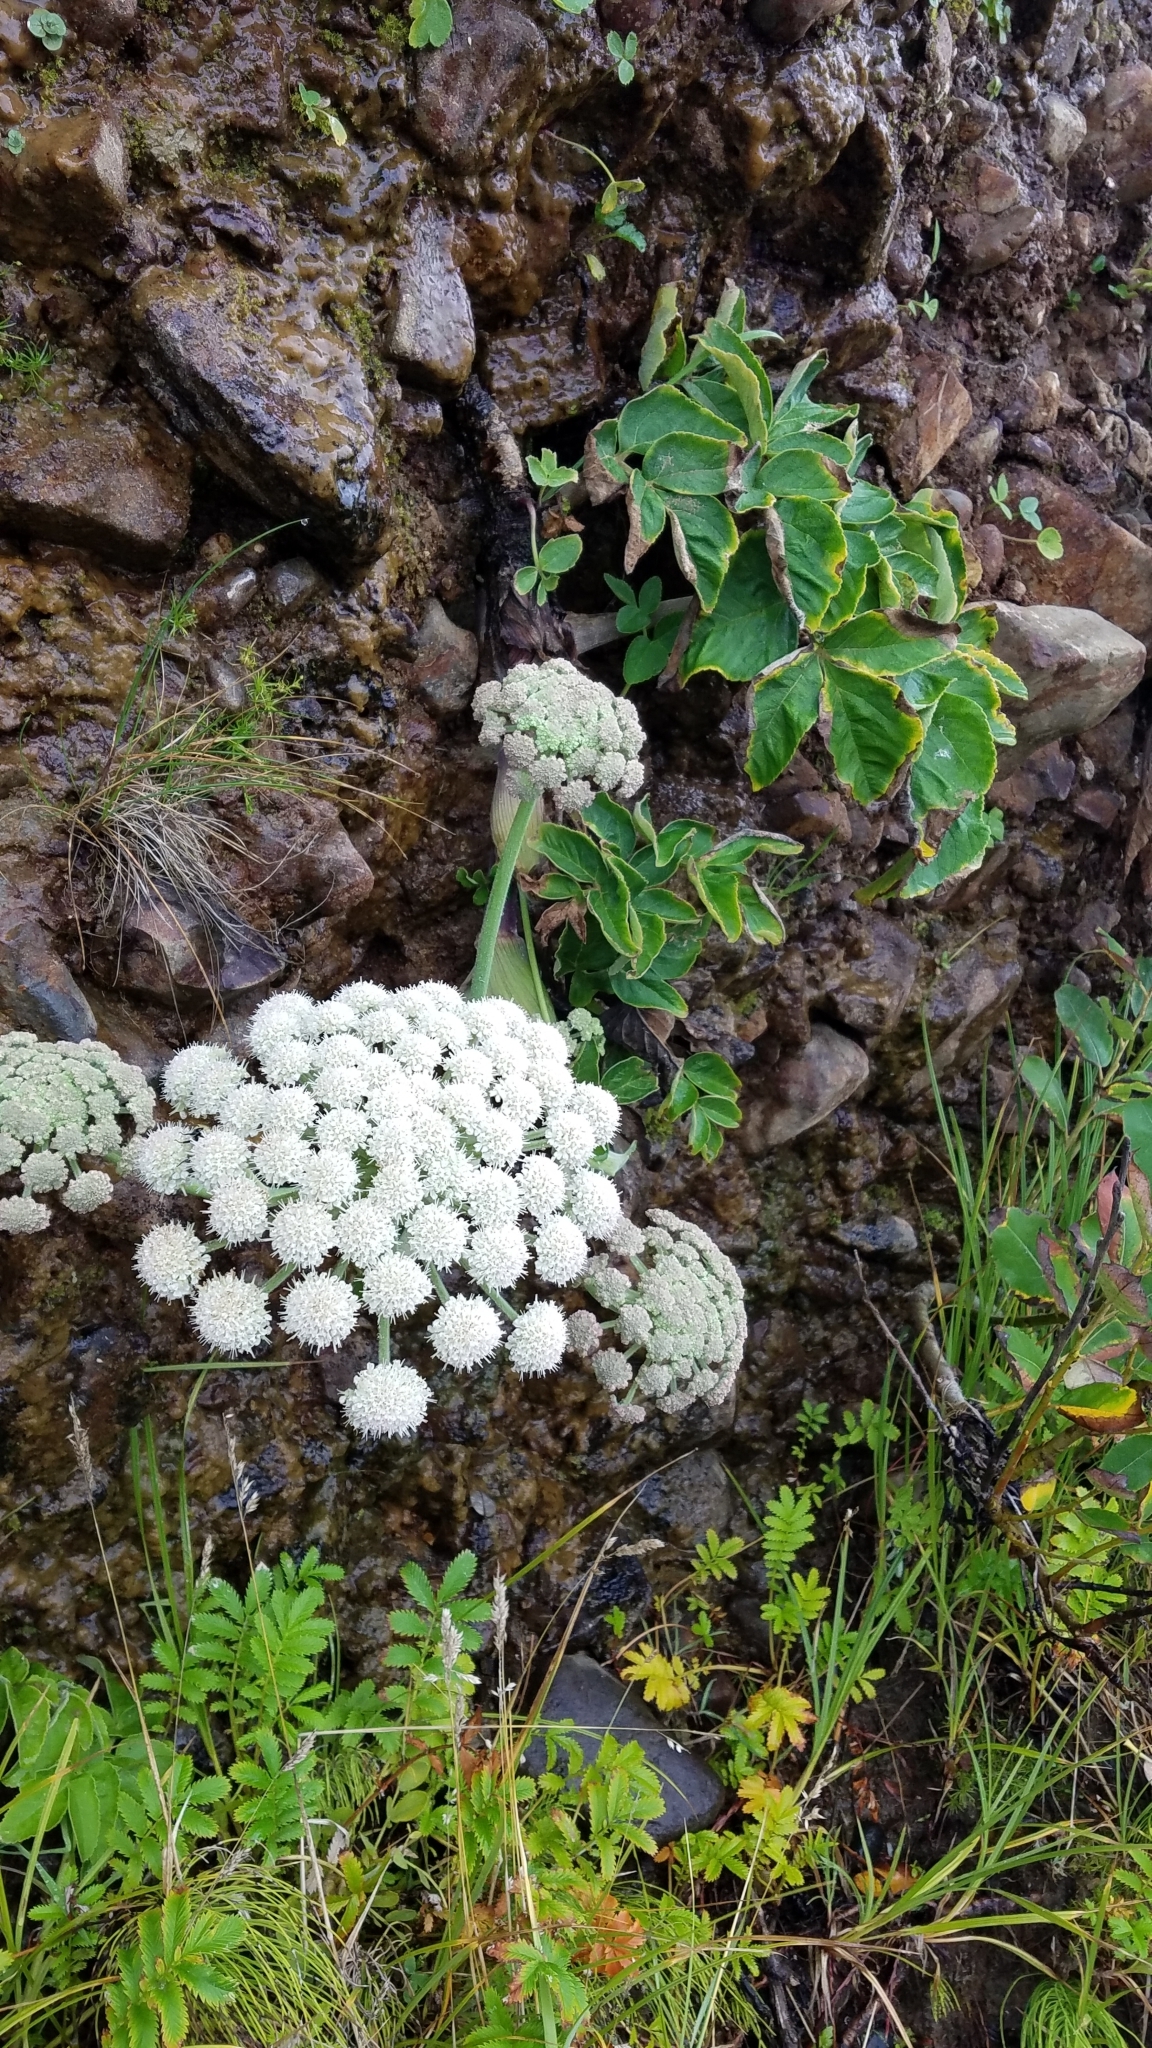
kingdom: Plantae
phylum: Tracheophyta
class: Magnoliopsida
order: Apiales
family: Apiaceae
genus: Angelica
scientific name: Angelica hendersonii
